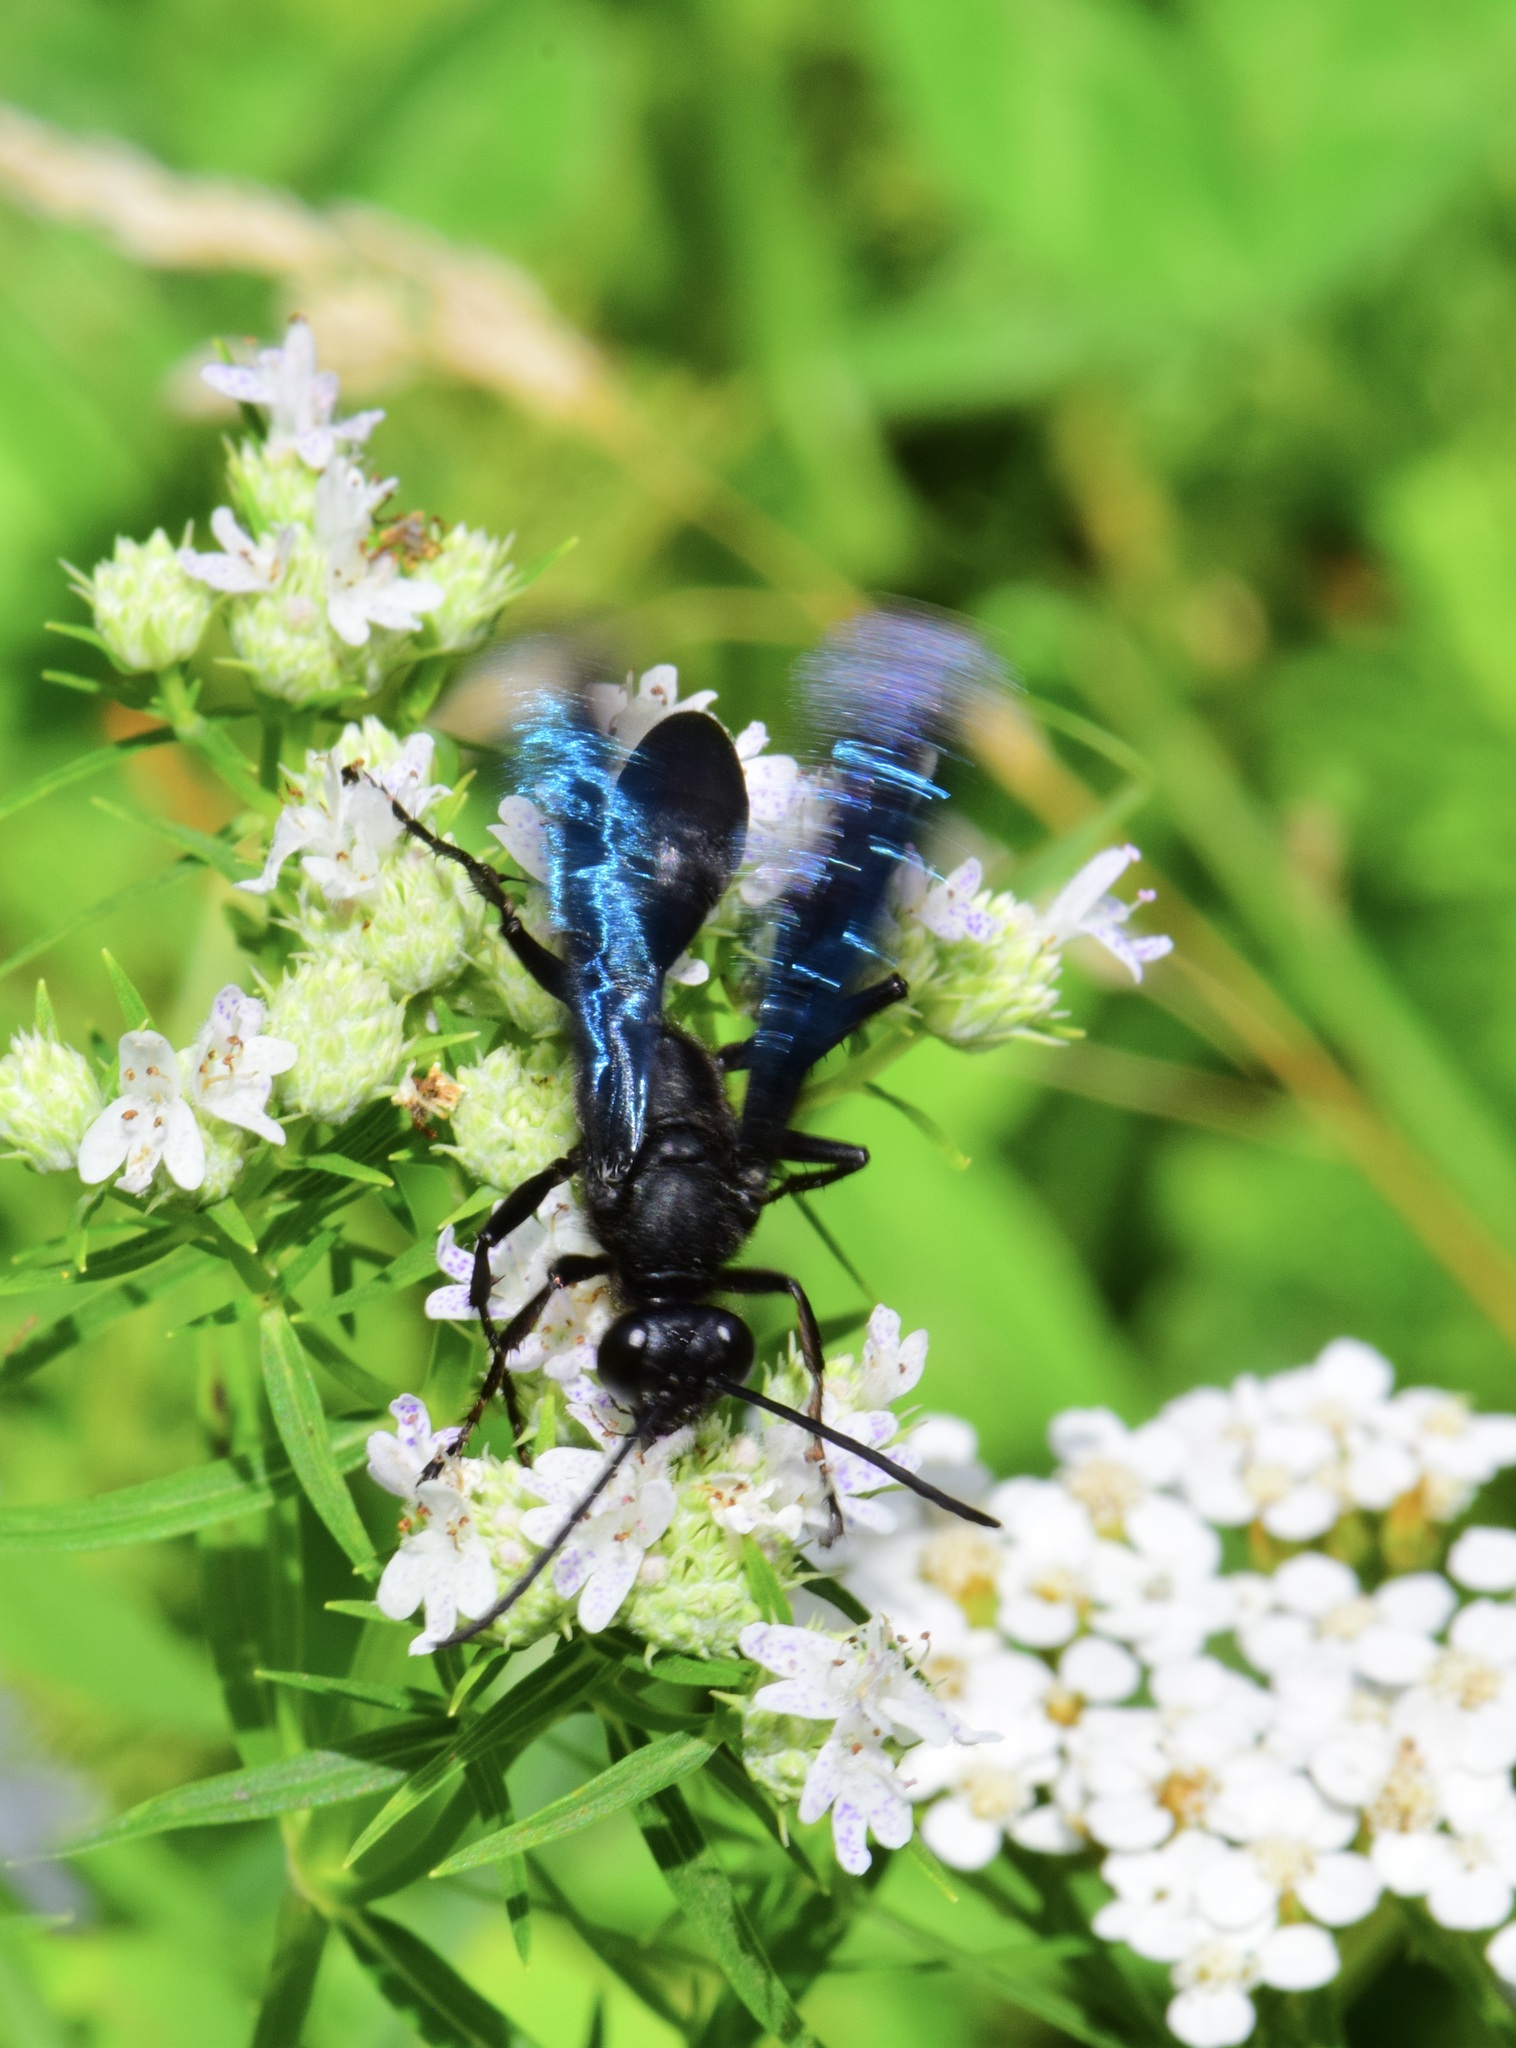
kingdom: Animalia
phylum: Arthropoda
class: Insecta
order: Hymenoptera
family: Sphecidae
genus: Sphex
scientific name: Sphex pensylvanicus
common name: Great black digger wasp
